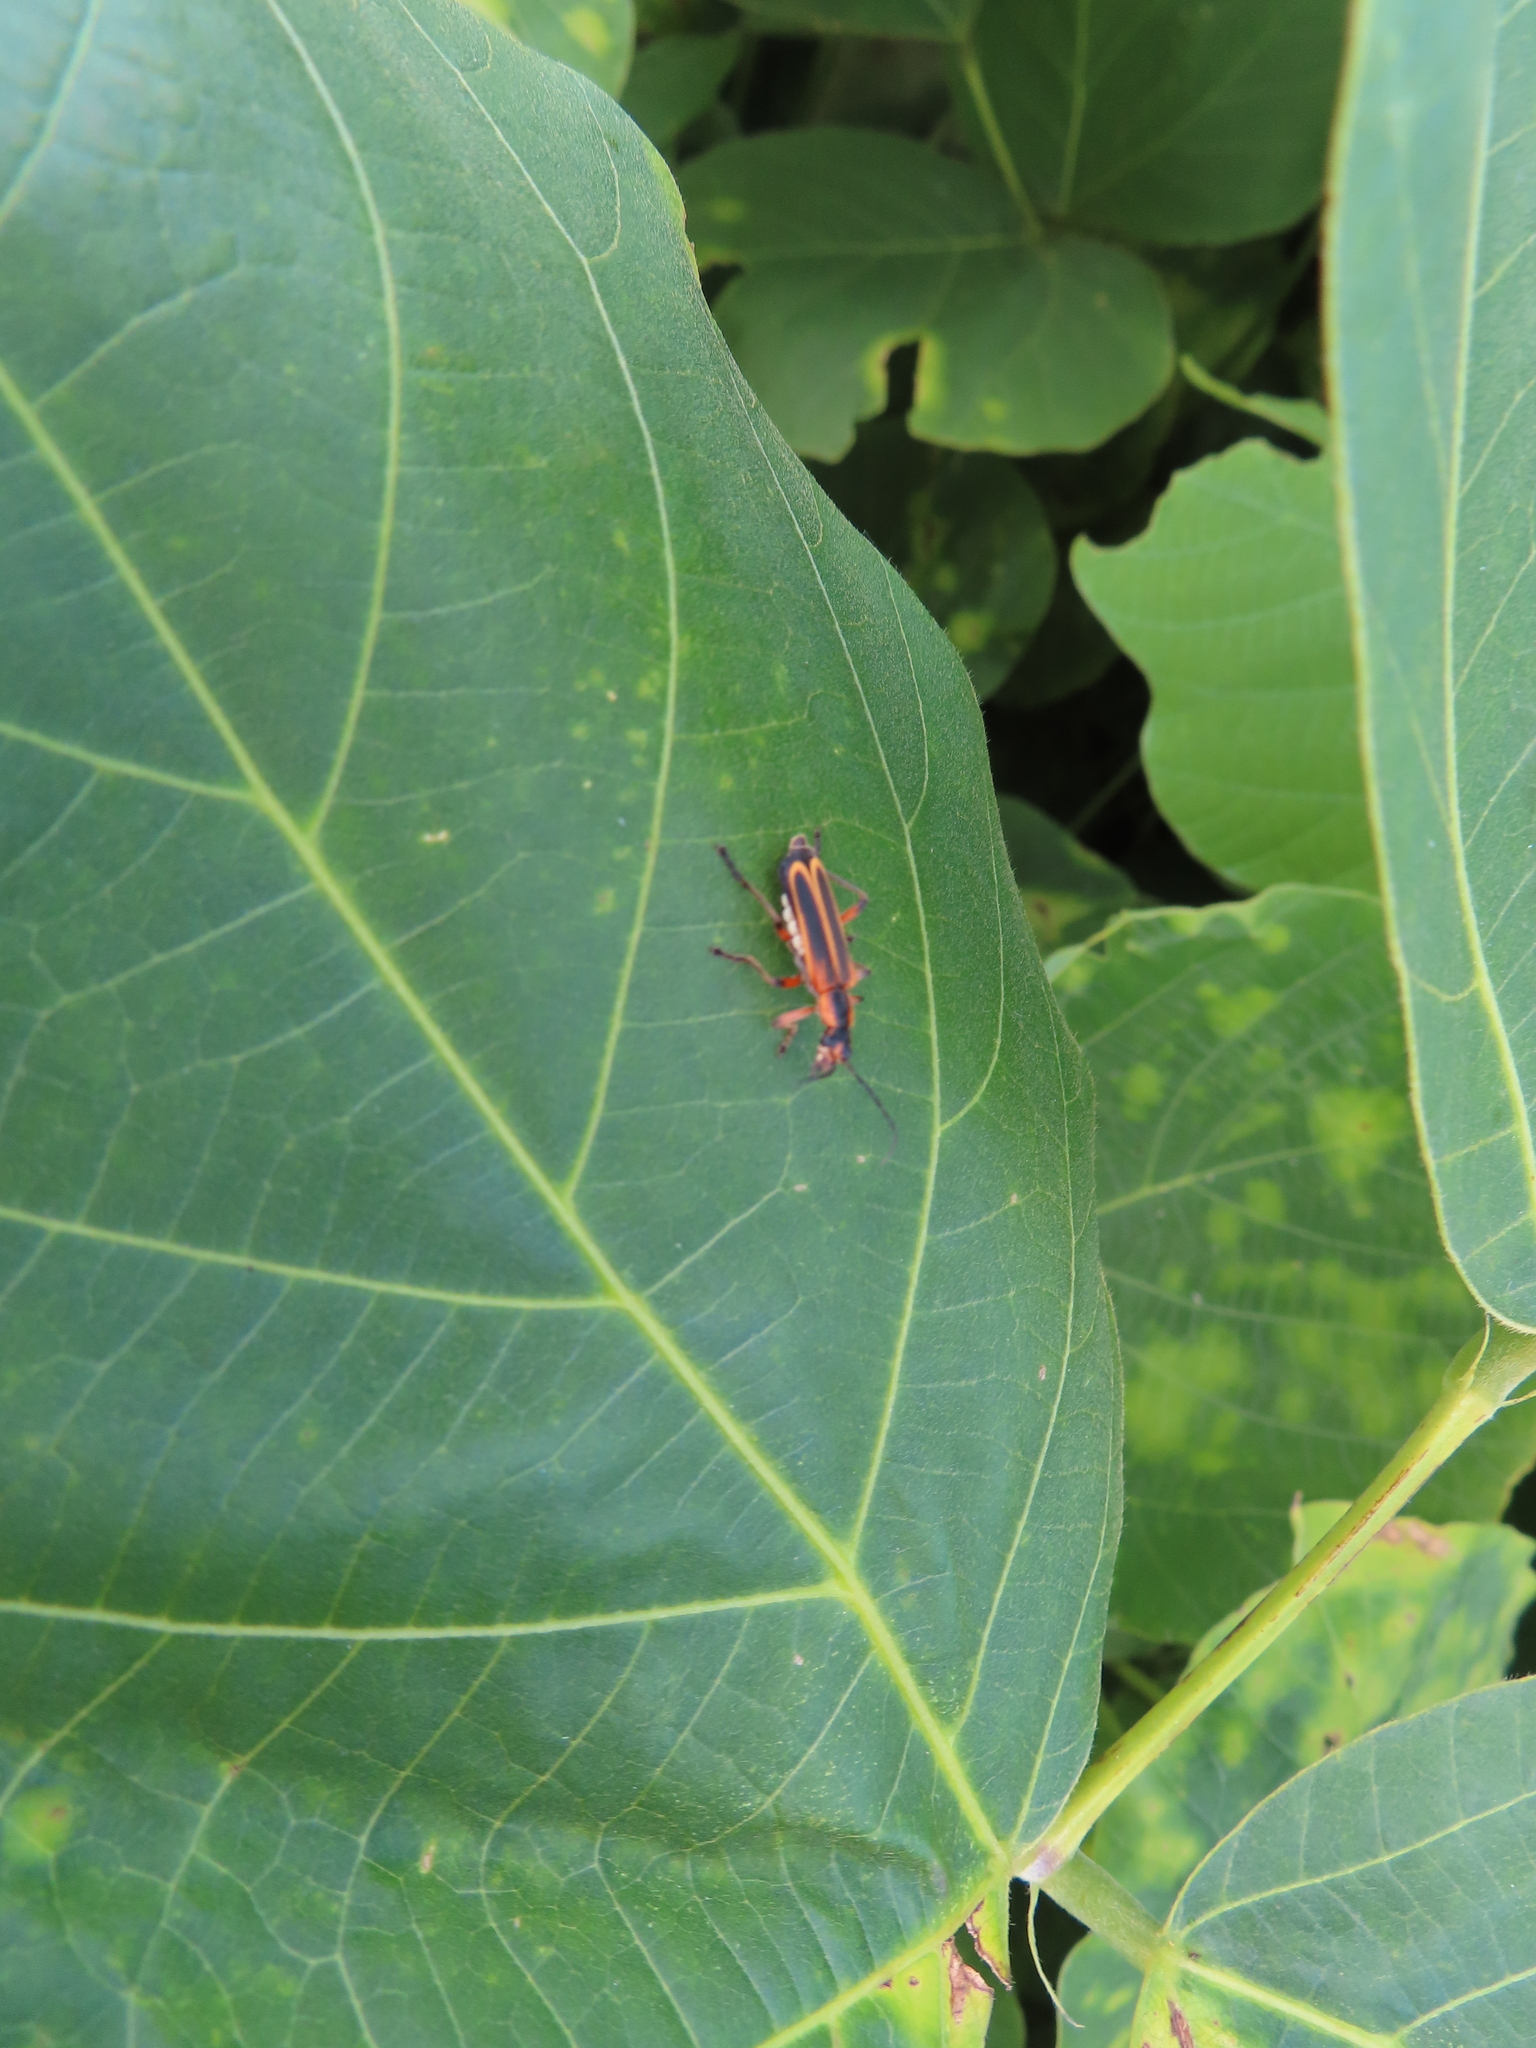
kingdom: Animalia
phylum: Arthropoda
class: Insecta
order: Coleoptera
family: Cantharidae
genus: Chauliognathus
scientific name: Chauliognathus marginatus
